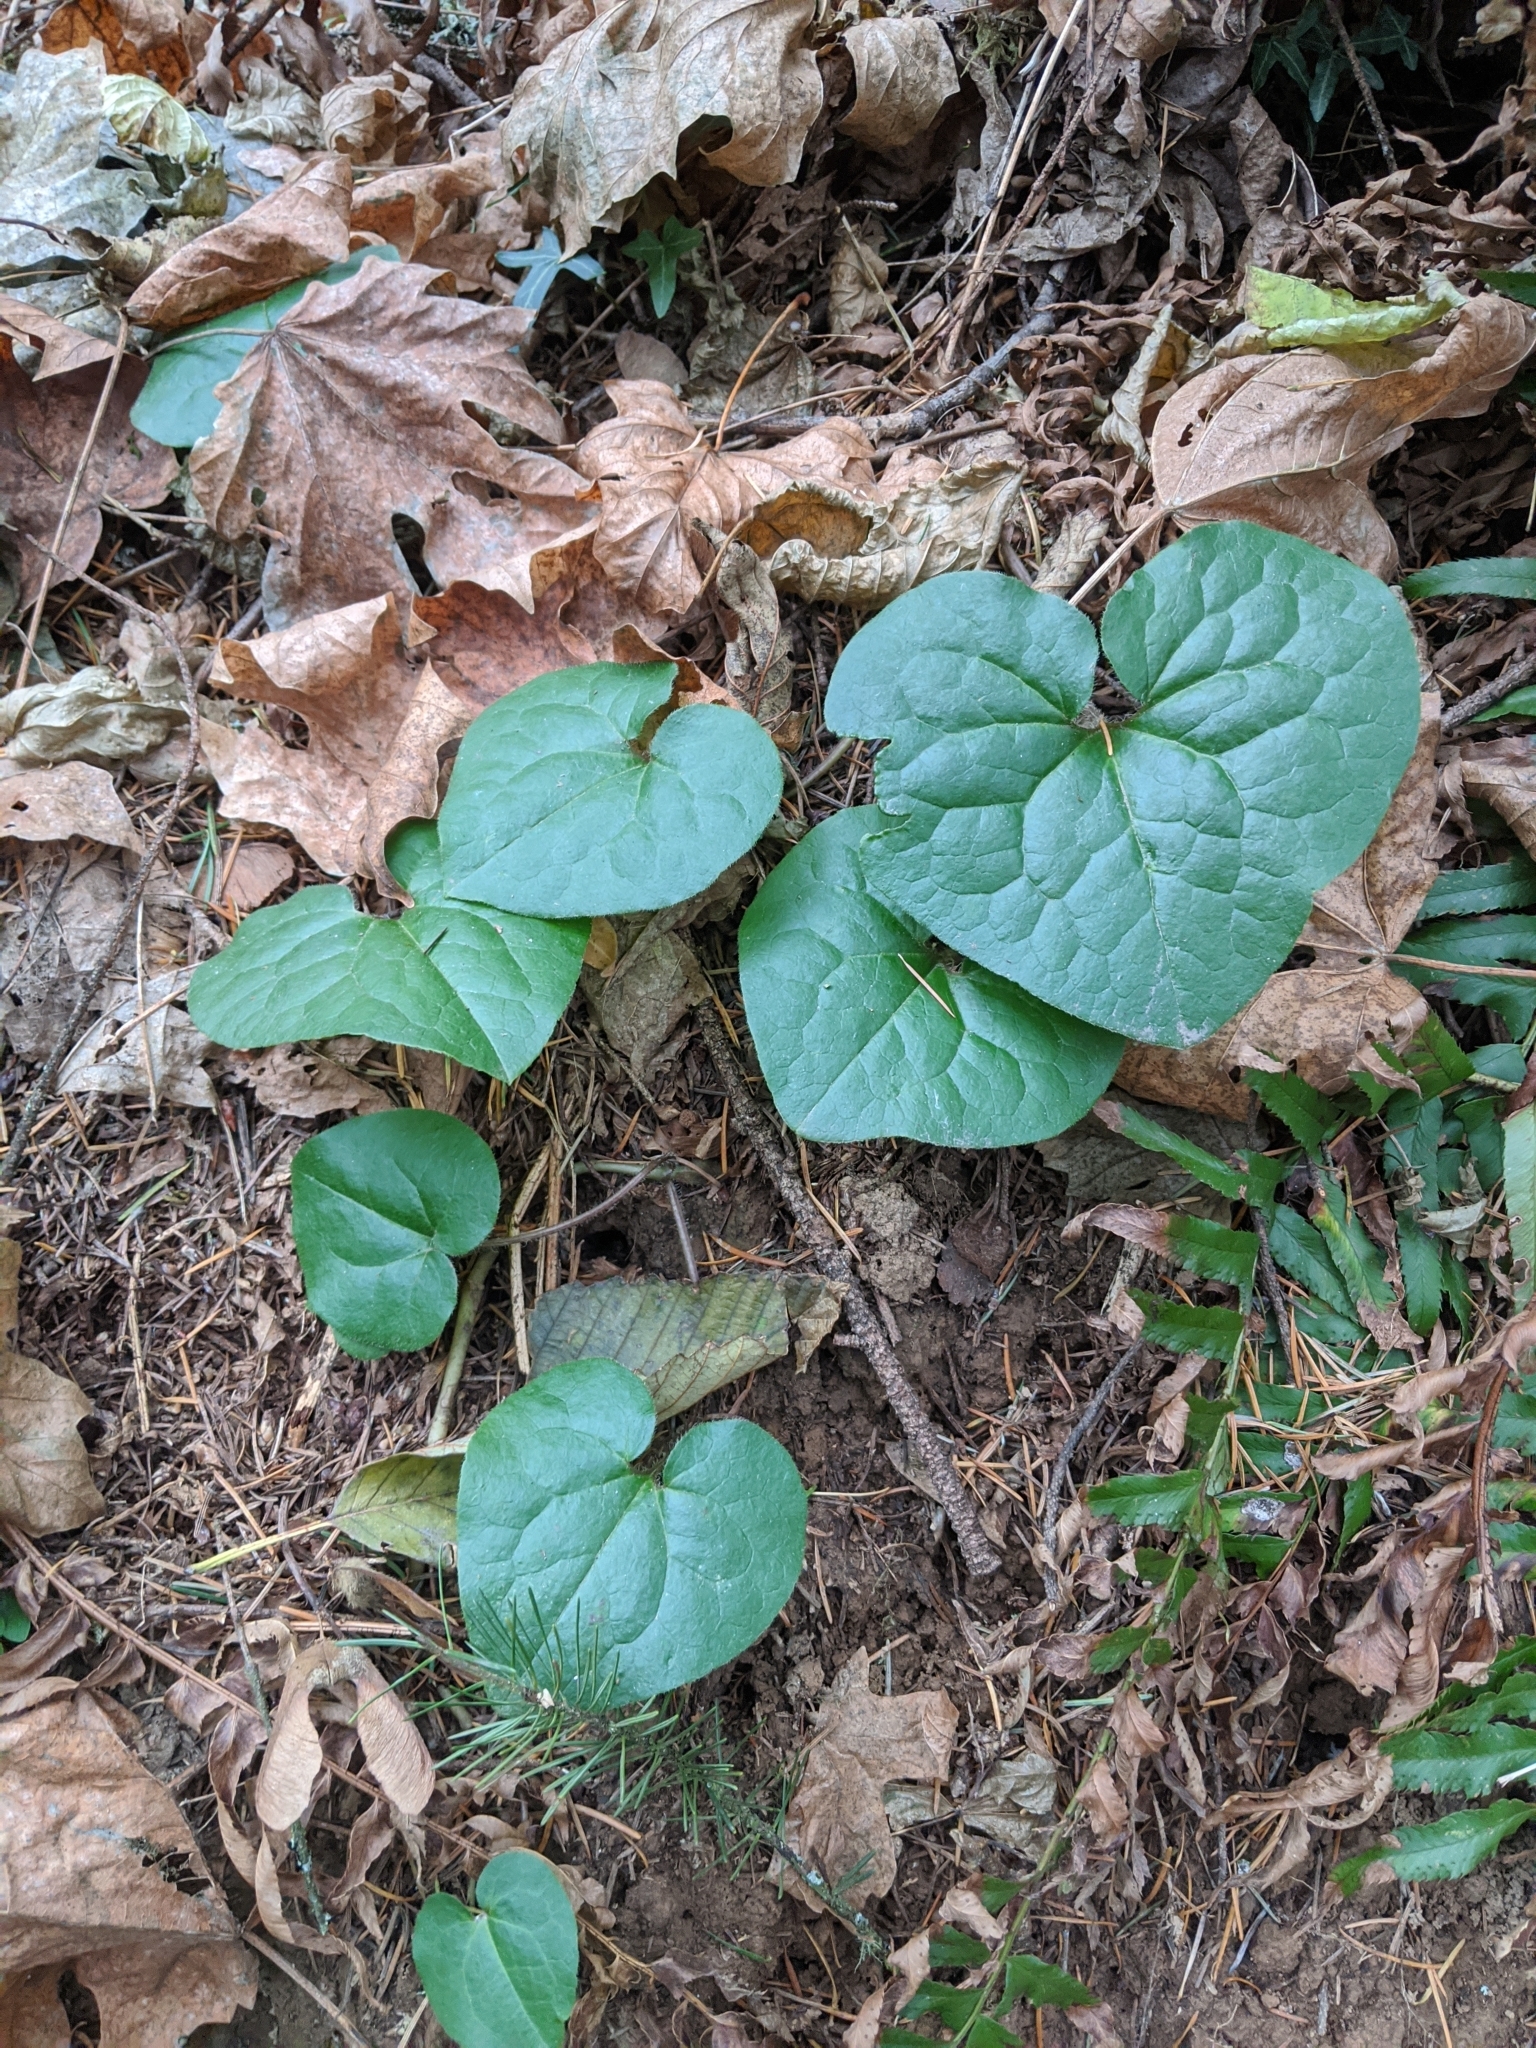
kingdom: Plantae
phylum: Tracheophyta
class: Magnoliopsida
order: Piperales
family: Aristolochiaceae
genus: Asarum
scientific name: Asarum caudatum
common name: Wild ginger
